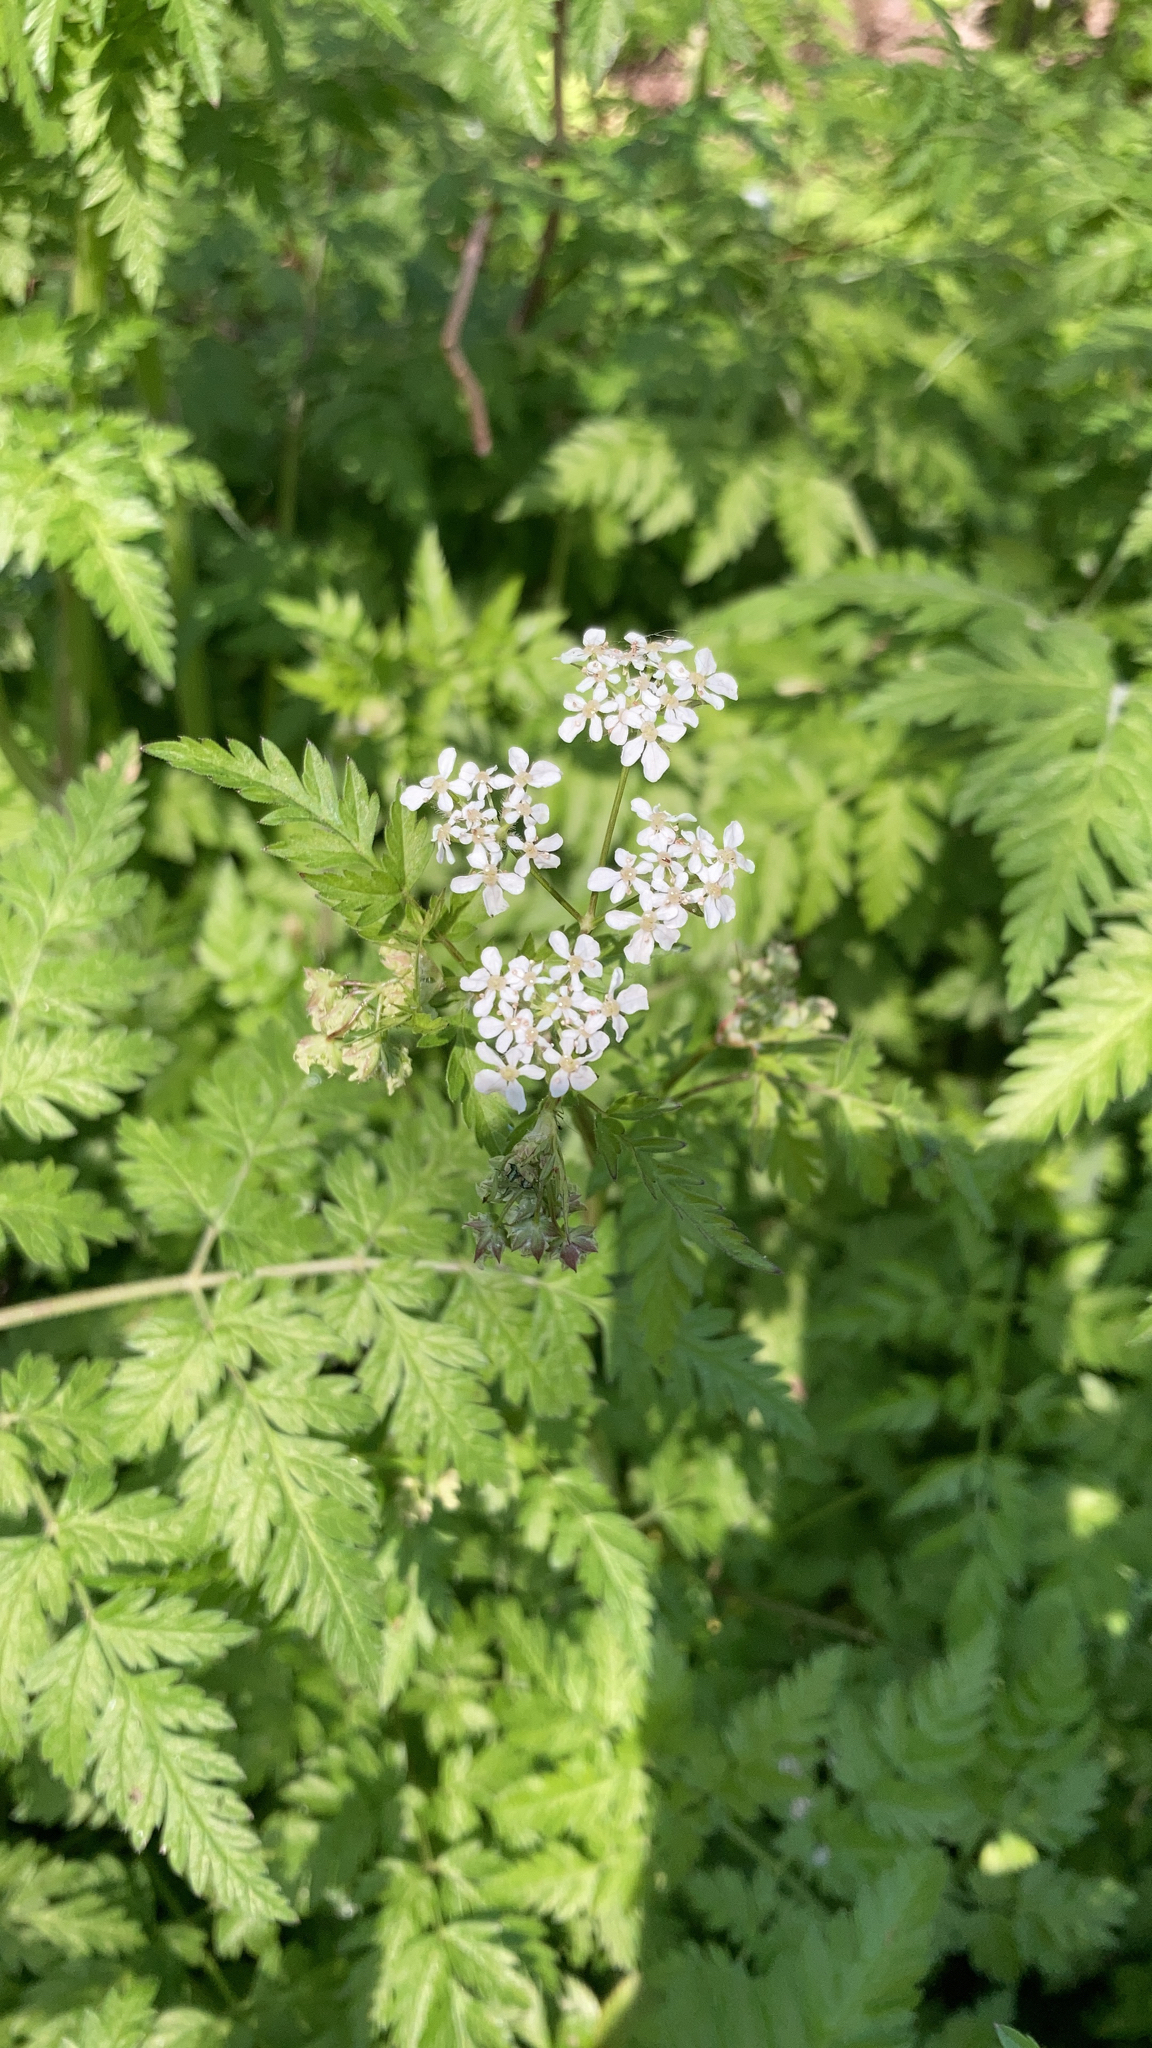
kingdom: Plantae
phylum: Tracheophyta
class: Magnoliopsida
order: Apiales
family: Apiaceae
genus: Anthriscus
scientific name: Anthriscus sylvestris
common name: Cow parsley
